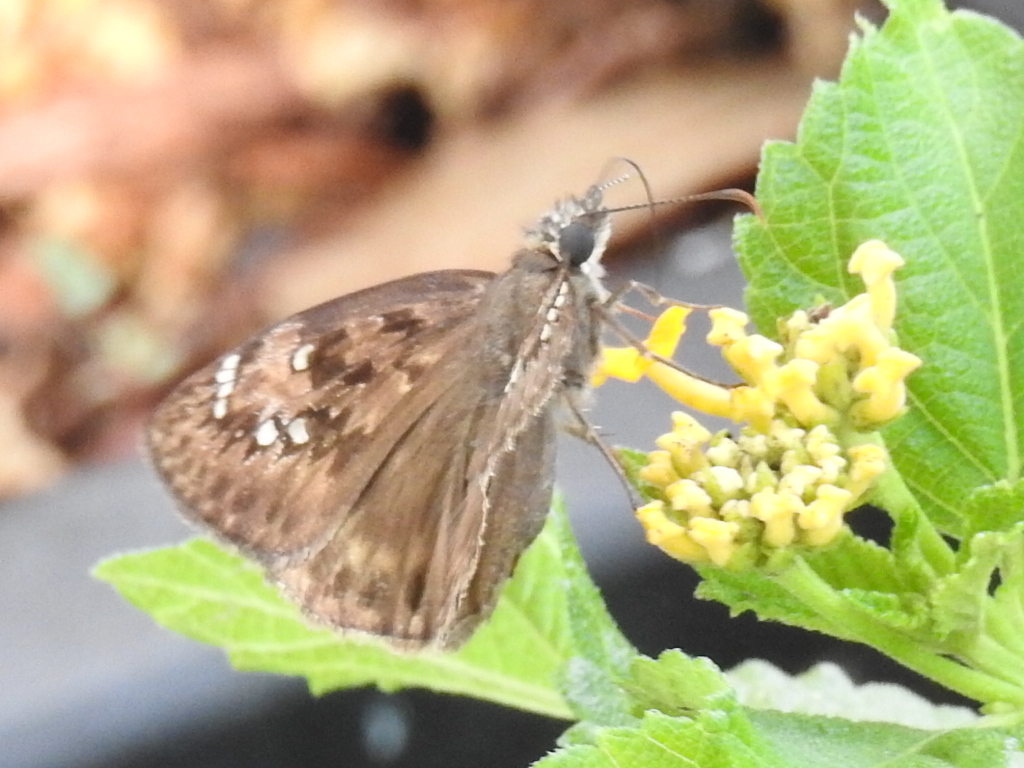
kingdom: Animalia
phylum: Arthropoda
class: Insecta
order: Lepidoptera
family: Hesperiidae
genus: Erynnis
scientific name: Erynnis horatius
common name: Horace's duskywing
